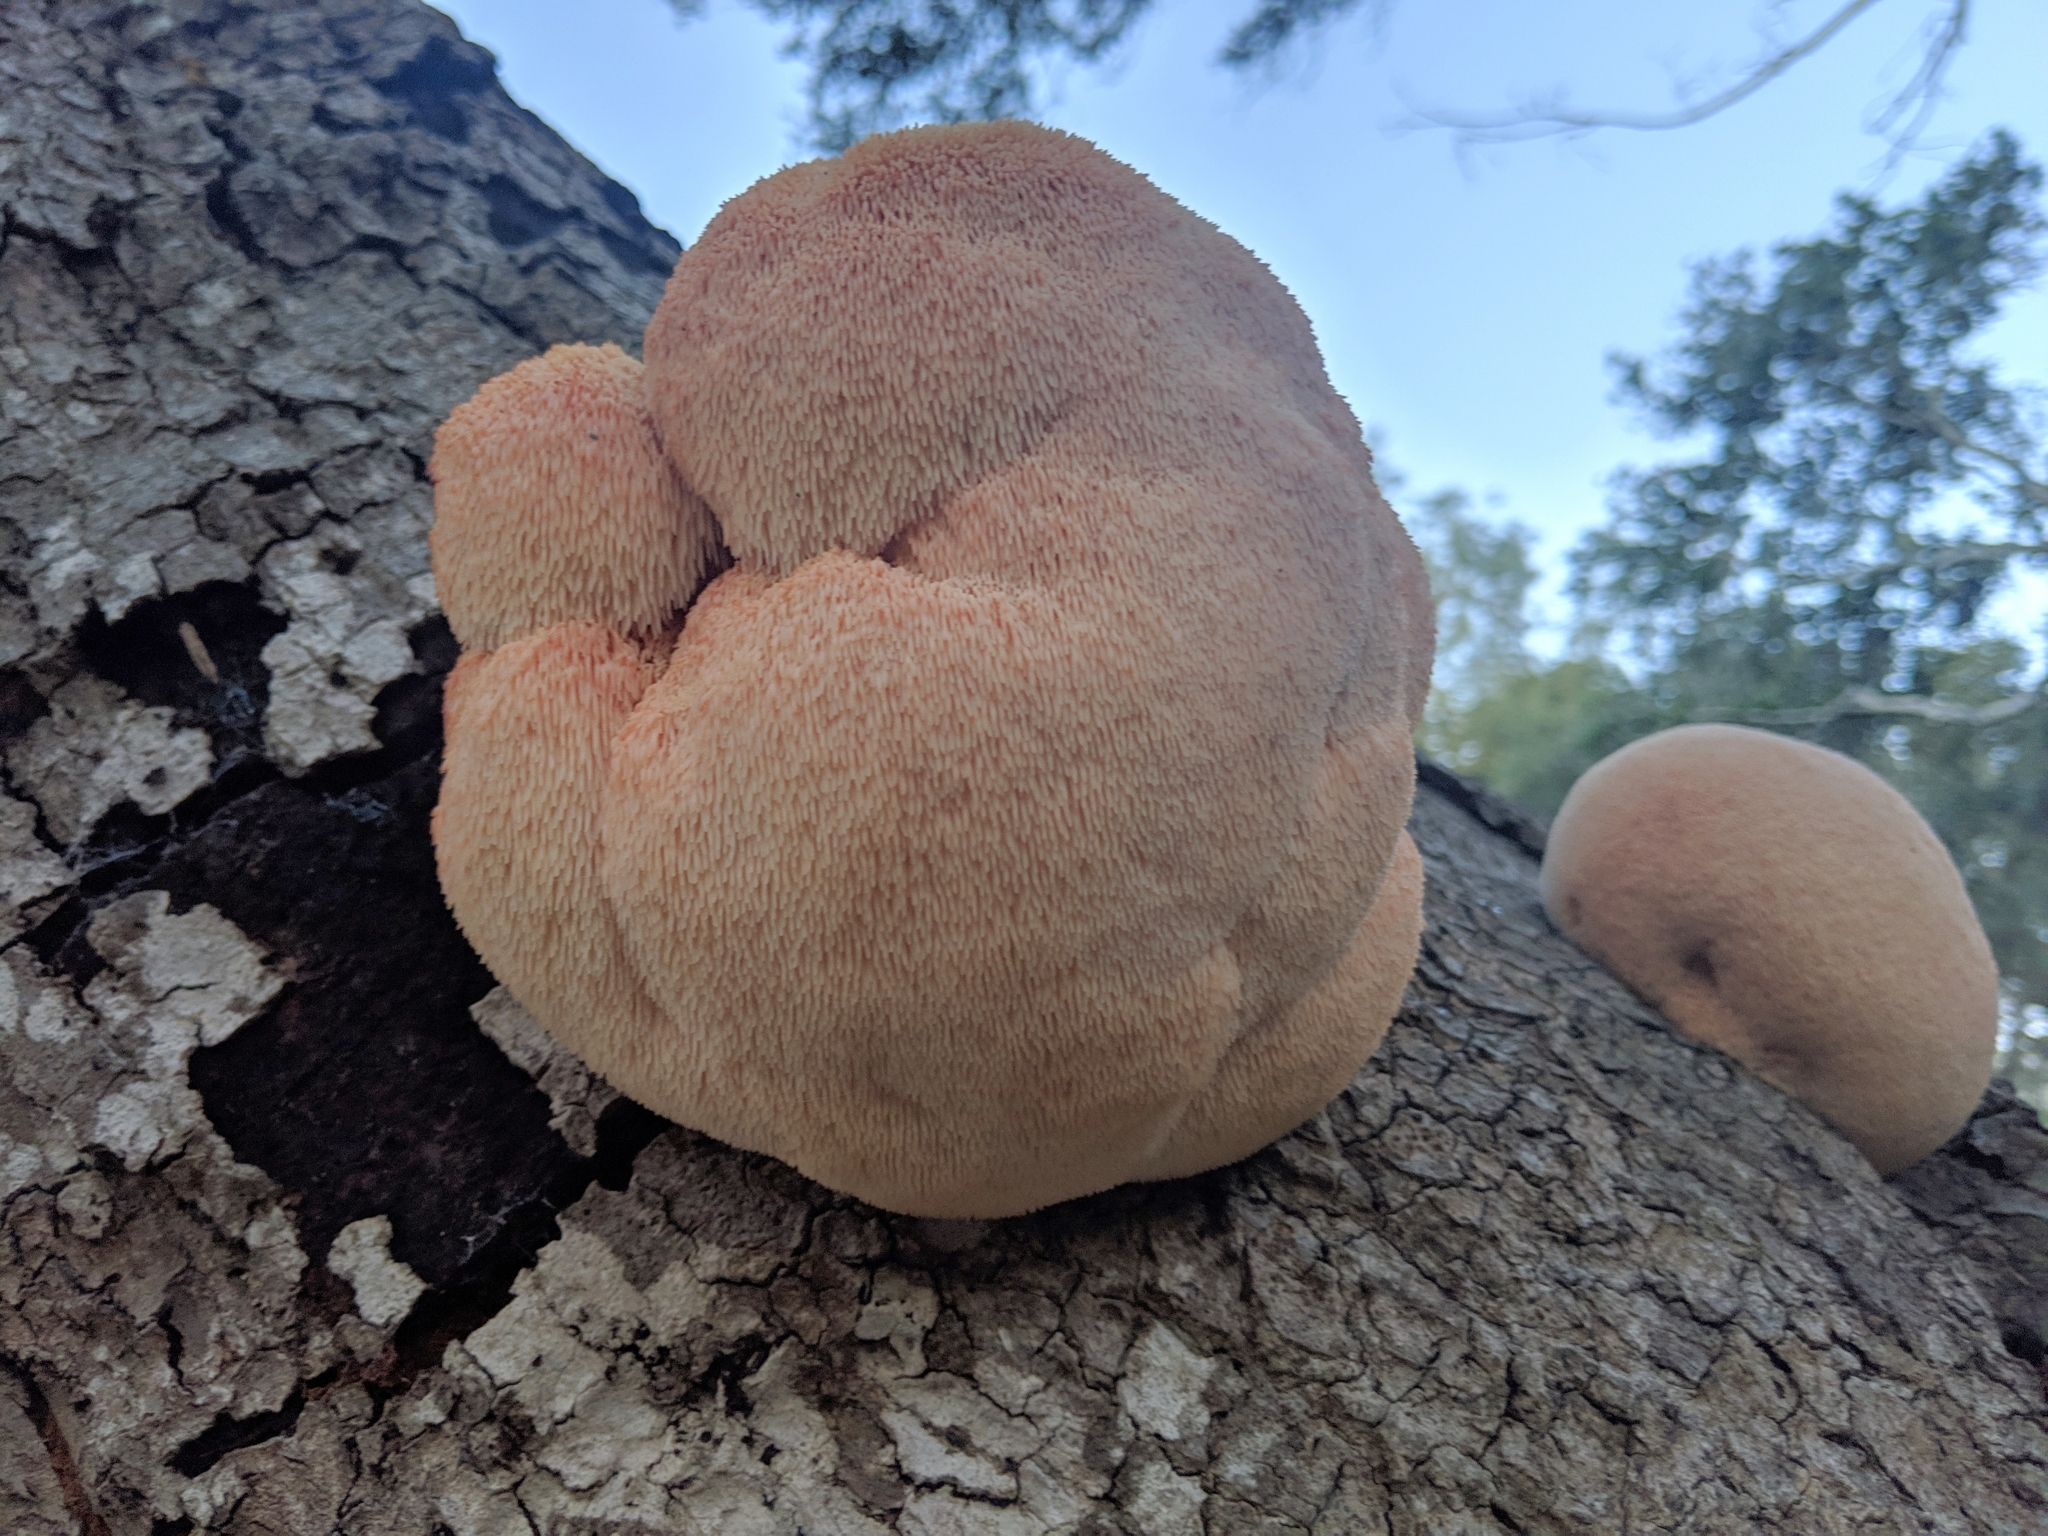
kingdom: Fungi
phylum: Basidiomycota
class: Agaricomycetes
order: Russulales
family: Hericiaceae
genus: Hericium
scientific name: Hericium erinaceus
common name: Bearded tooth
